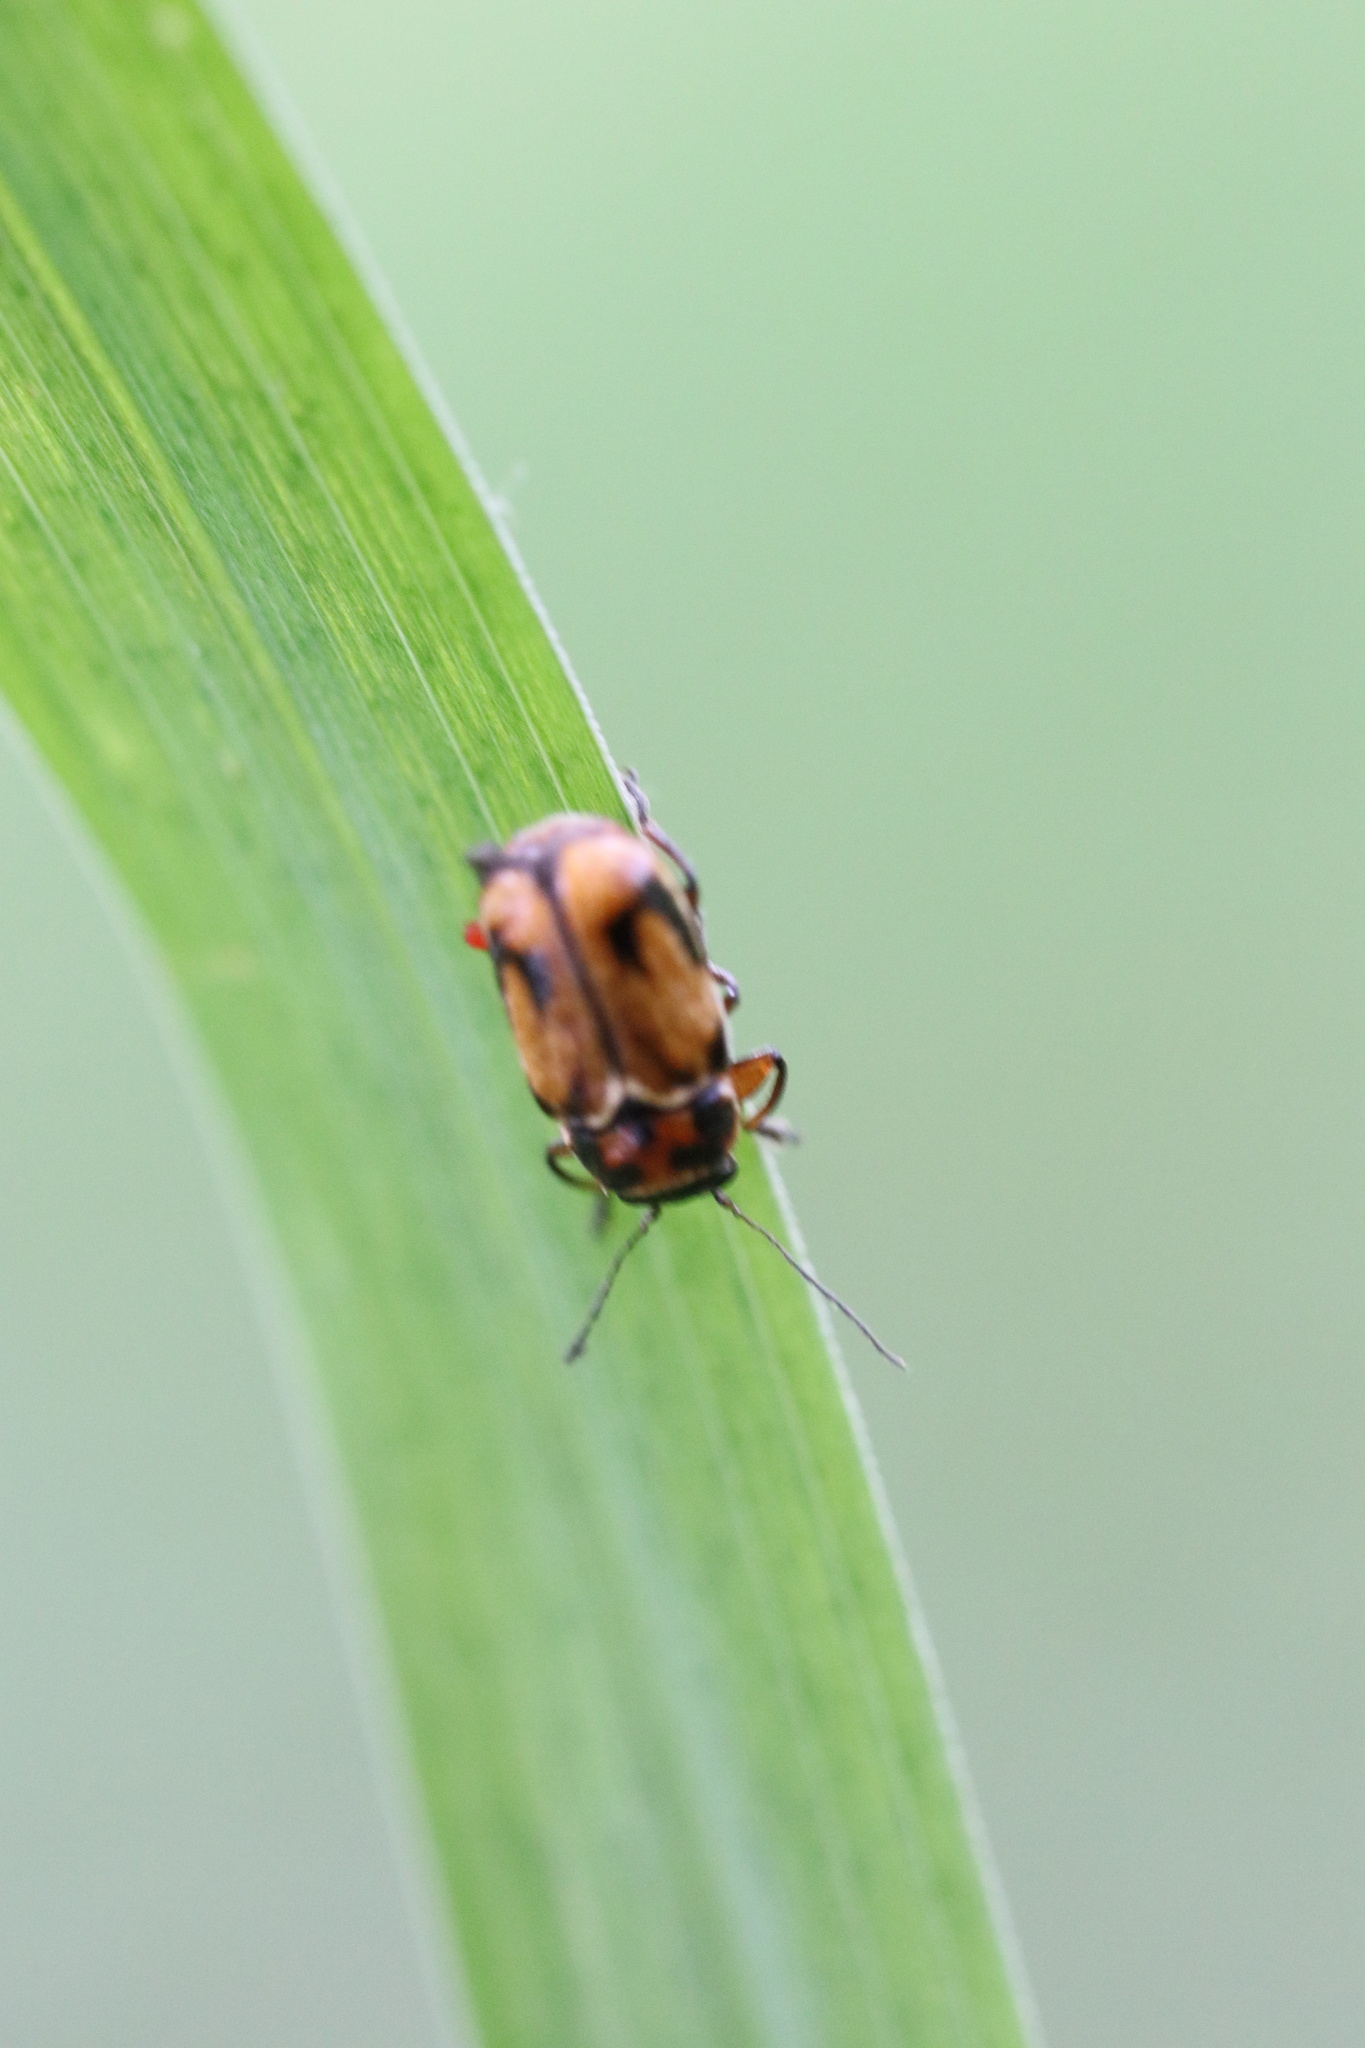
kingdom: Animalia
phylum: Arthropoda
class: Insecta
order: Coleoptera
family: Chrysomelidae
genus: Ambrotodes
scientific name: Ambrotodes
